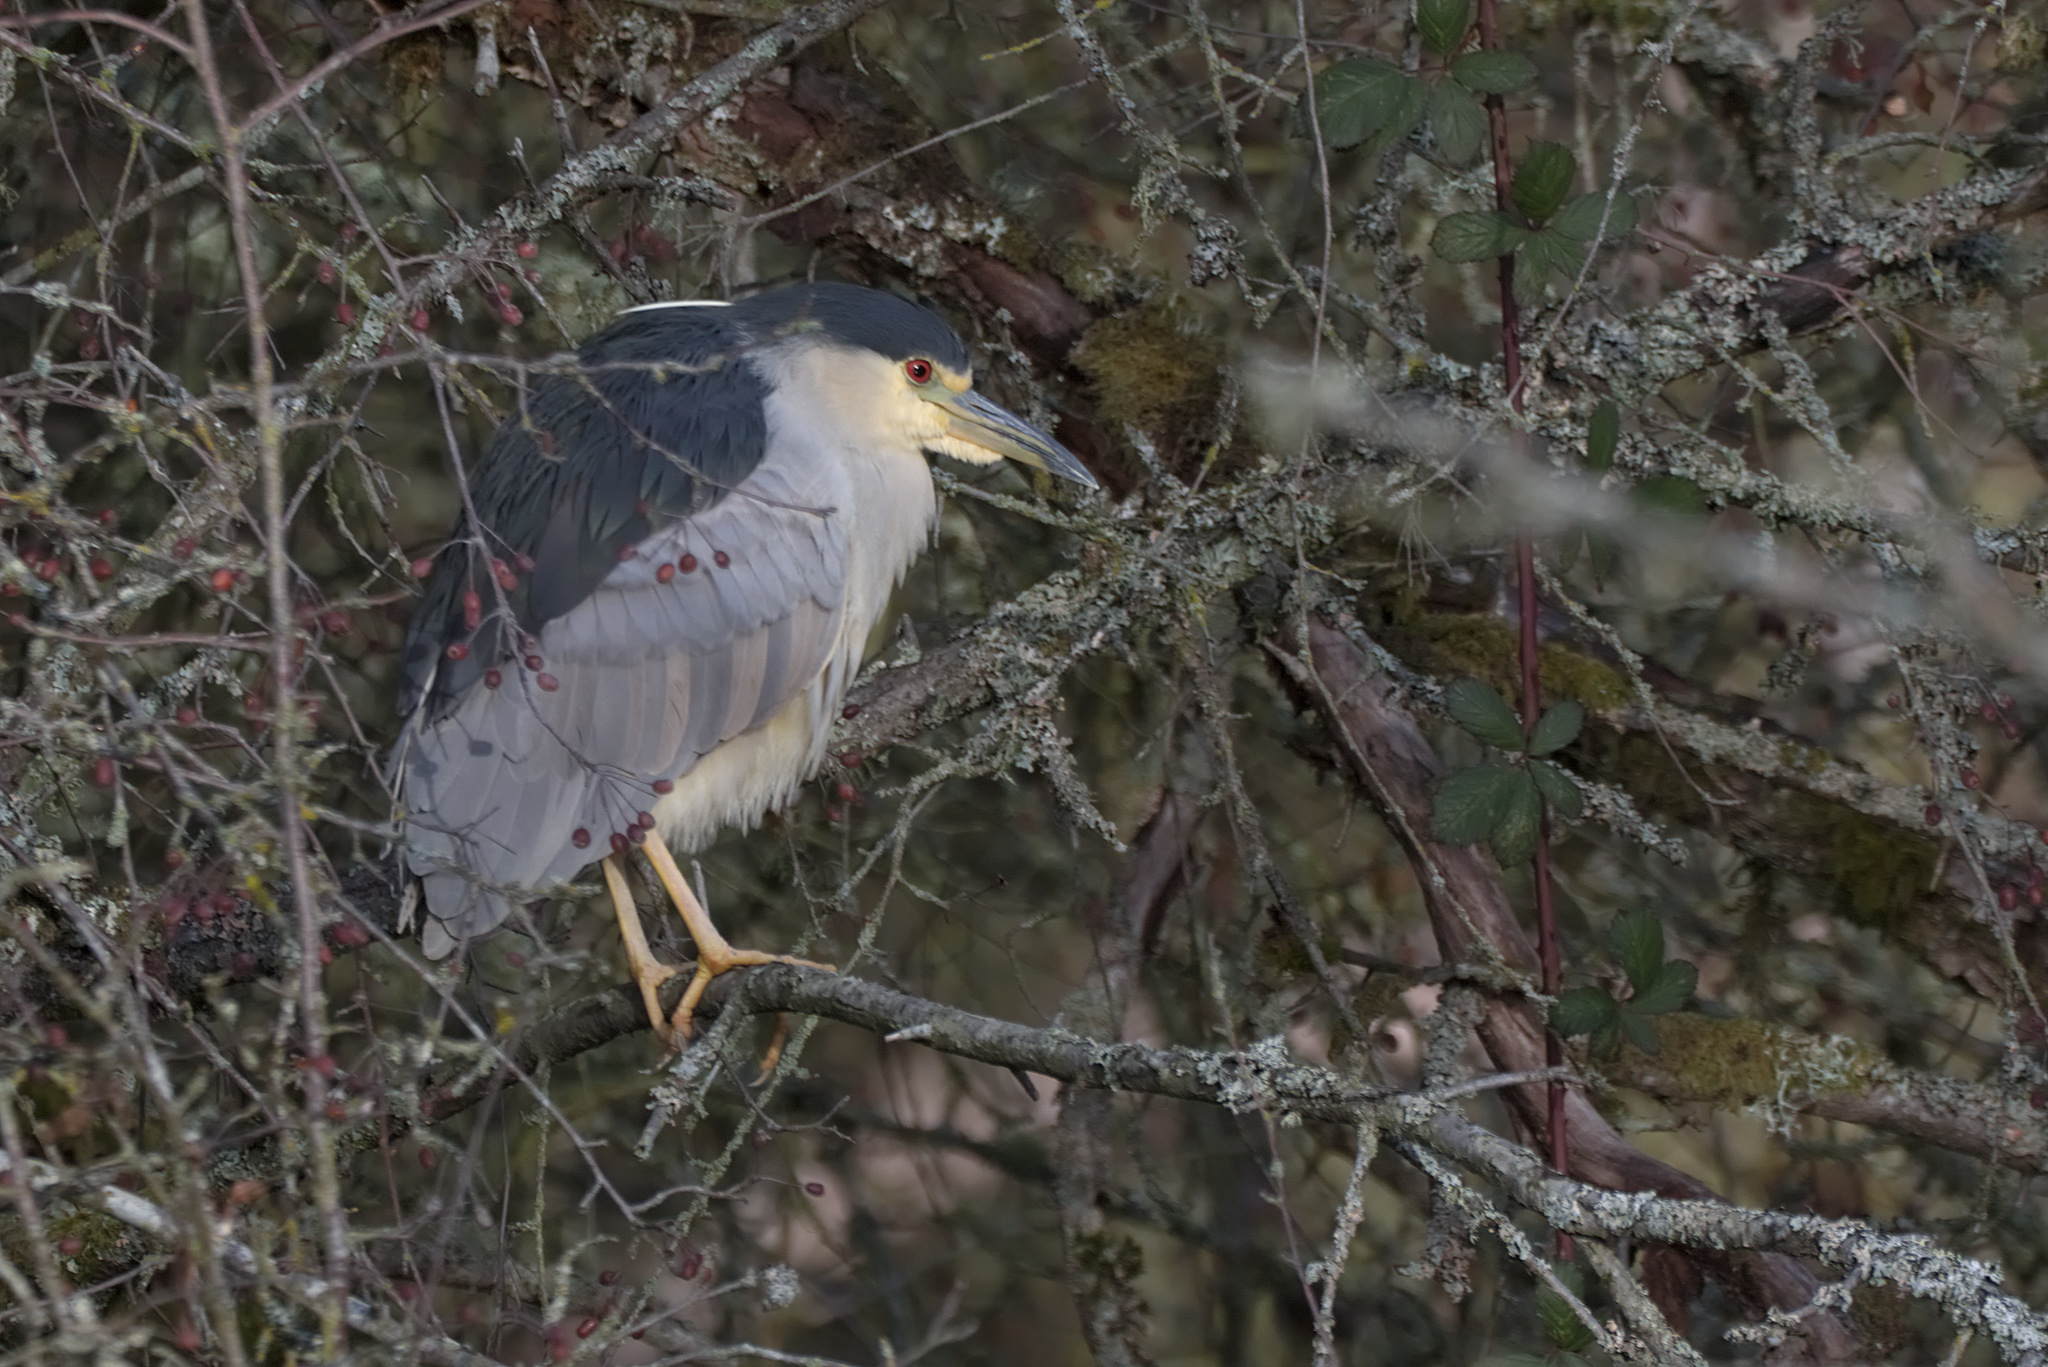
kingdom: Animalia
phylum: Chordata
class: Aves
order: Pelecaniformes
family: Ardeidae
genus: Nycticorax
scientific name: Nycticorax nycticorax
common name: Black-crowned night heron
